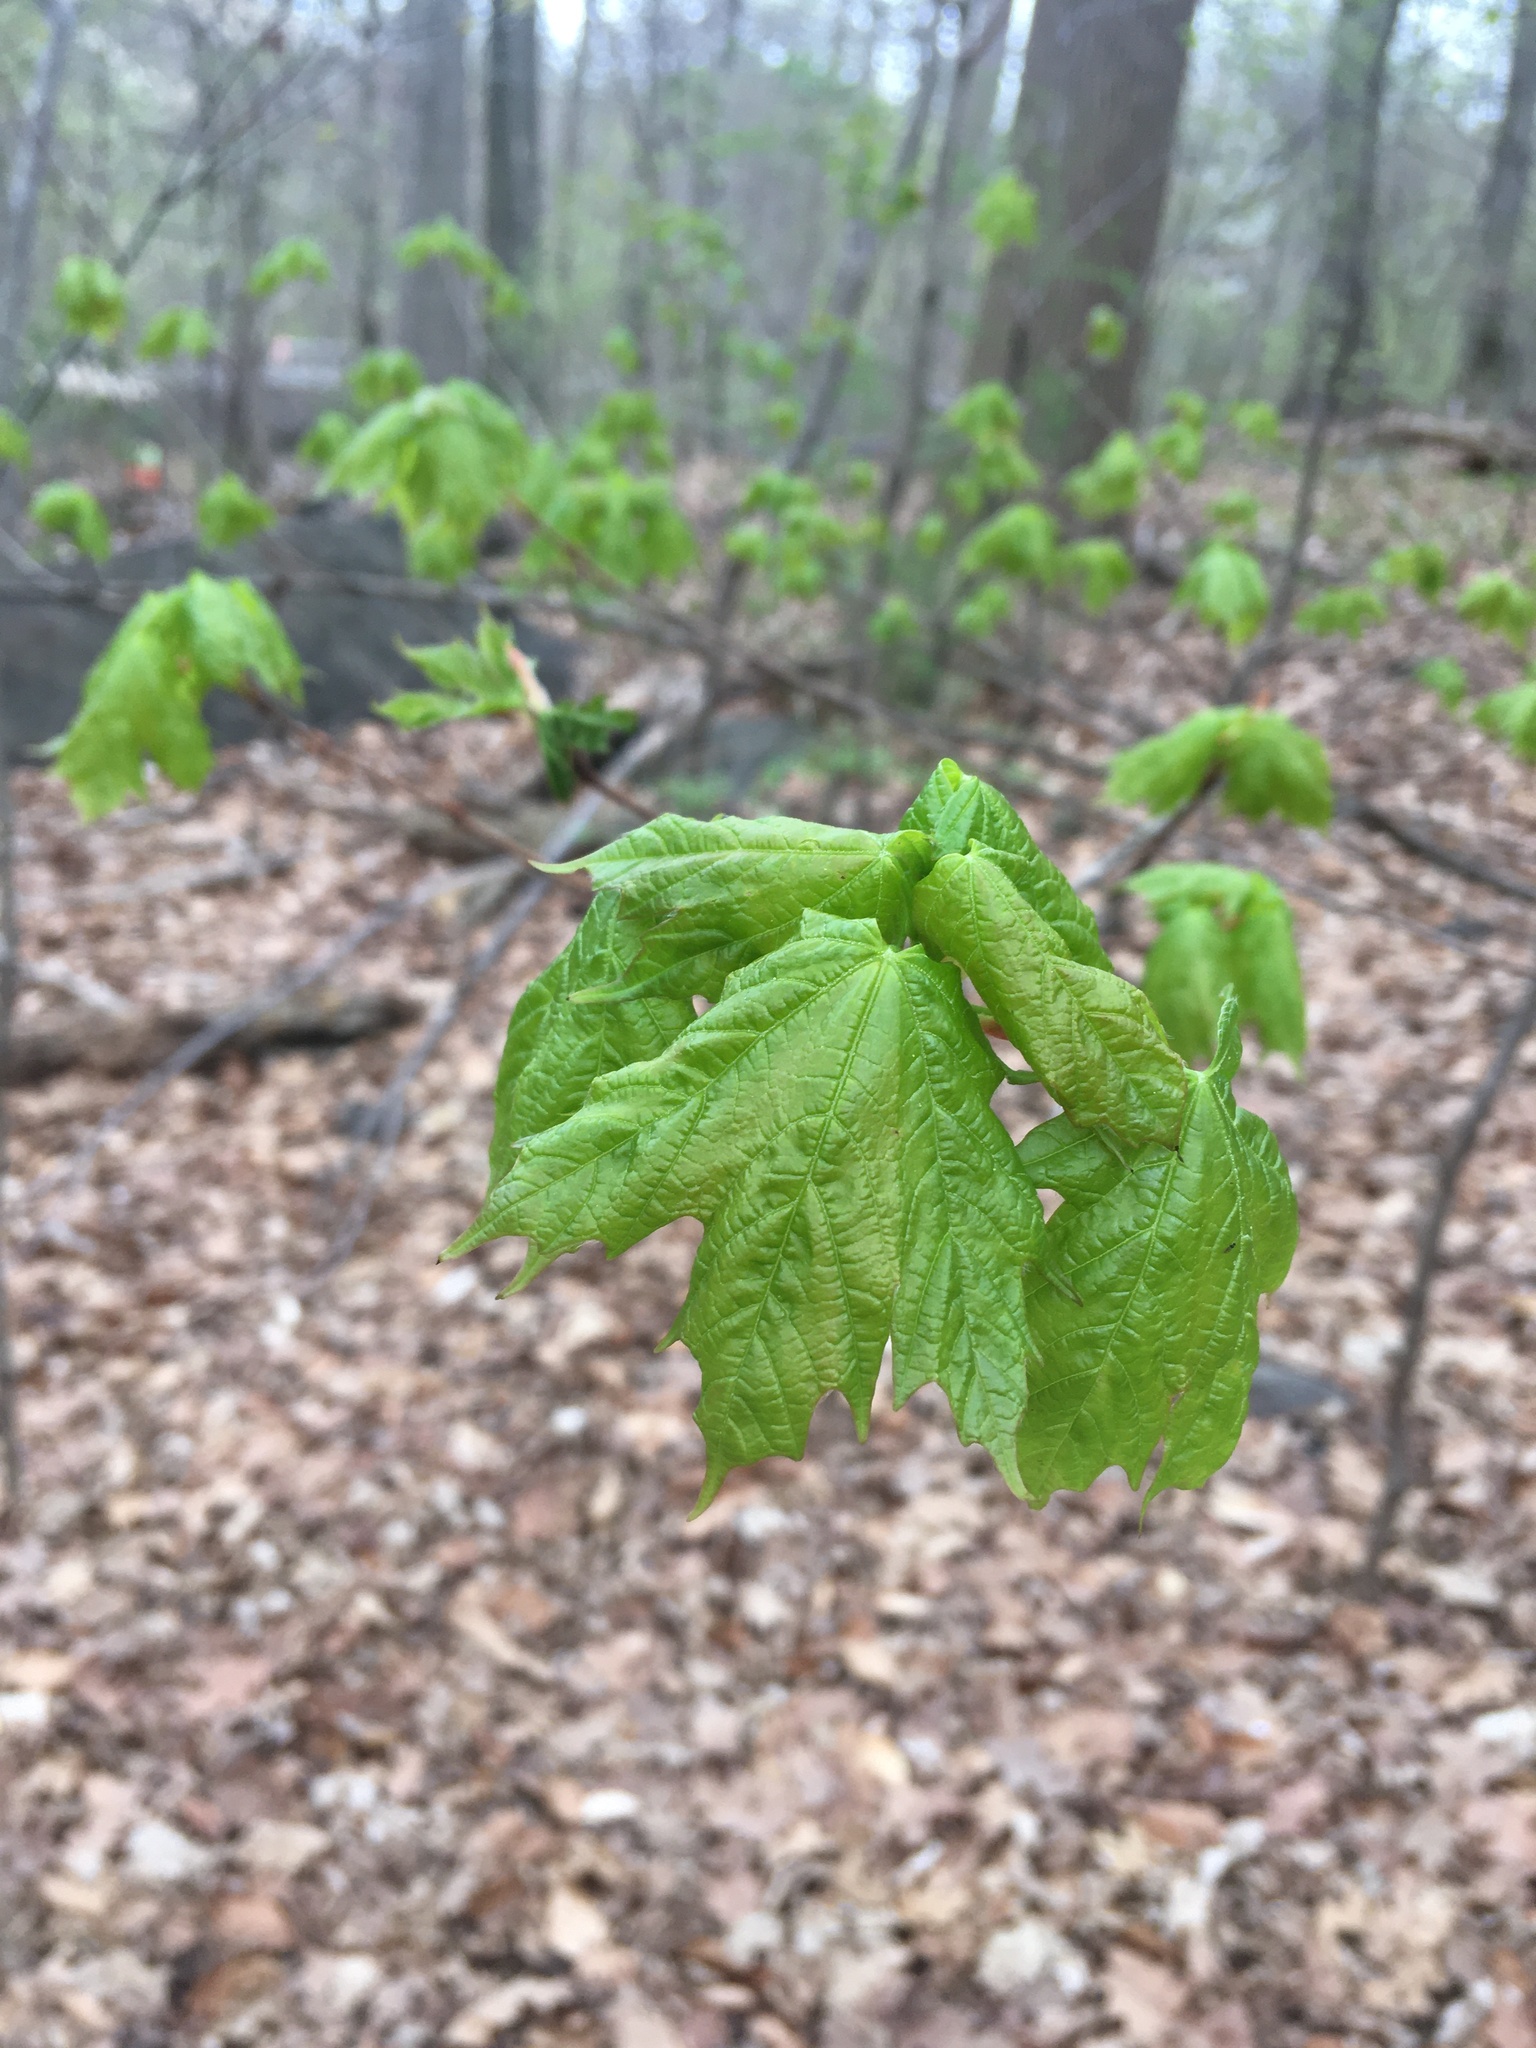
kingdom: Plantae
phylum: Tracheophyta
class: Magnoliopsida
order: Sapindales
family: Sapindaceae
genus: Acer
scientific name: Acer saccharum
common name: Sugar maple
